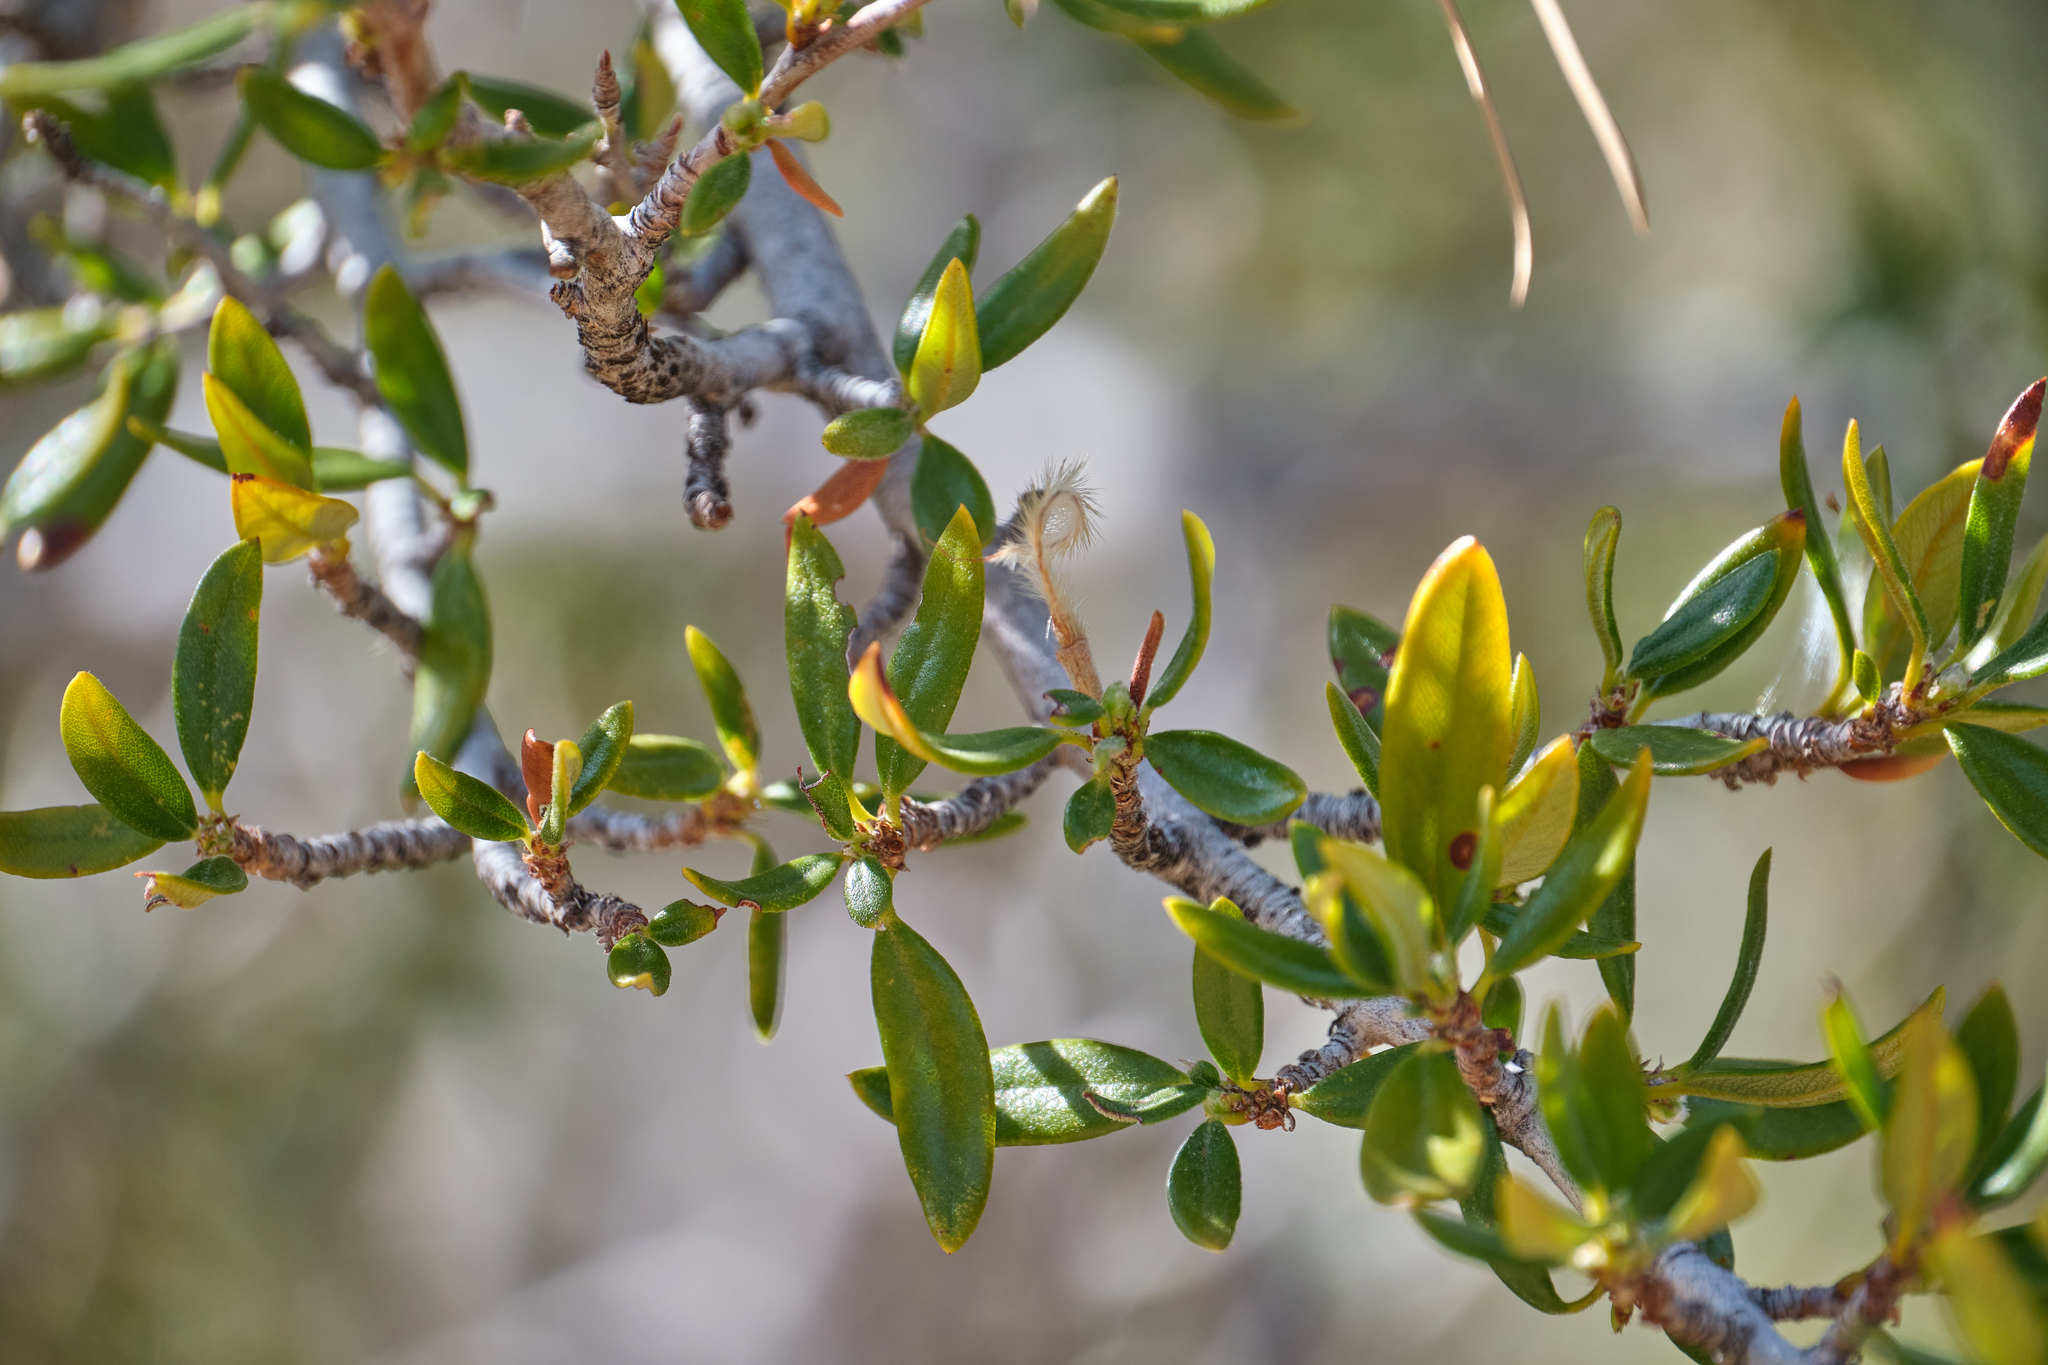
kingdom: Plantae
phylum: Tracheophyta
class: Magnoliopsida
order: Rosales
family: Rosaceae
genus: Cercocarpus
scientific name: Cercocarpus ledifolius
